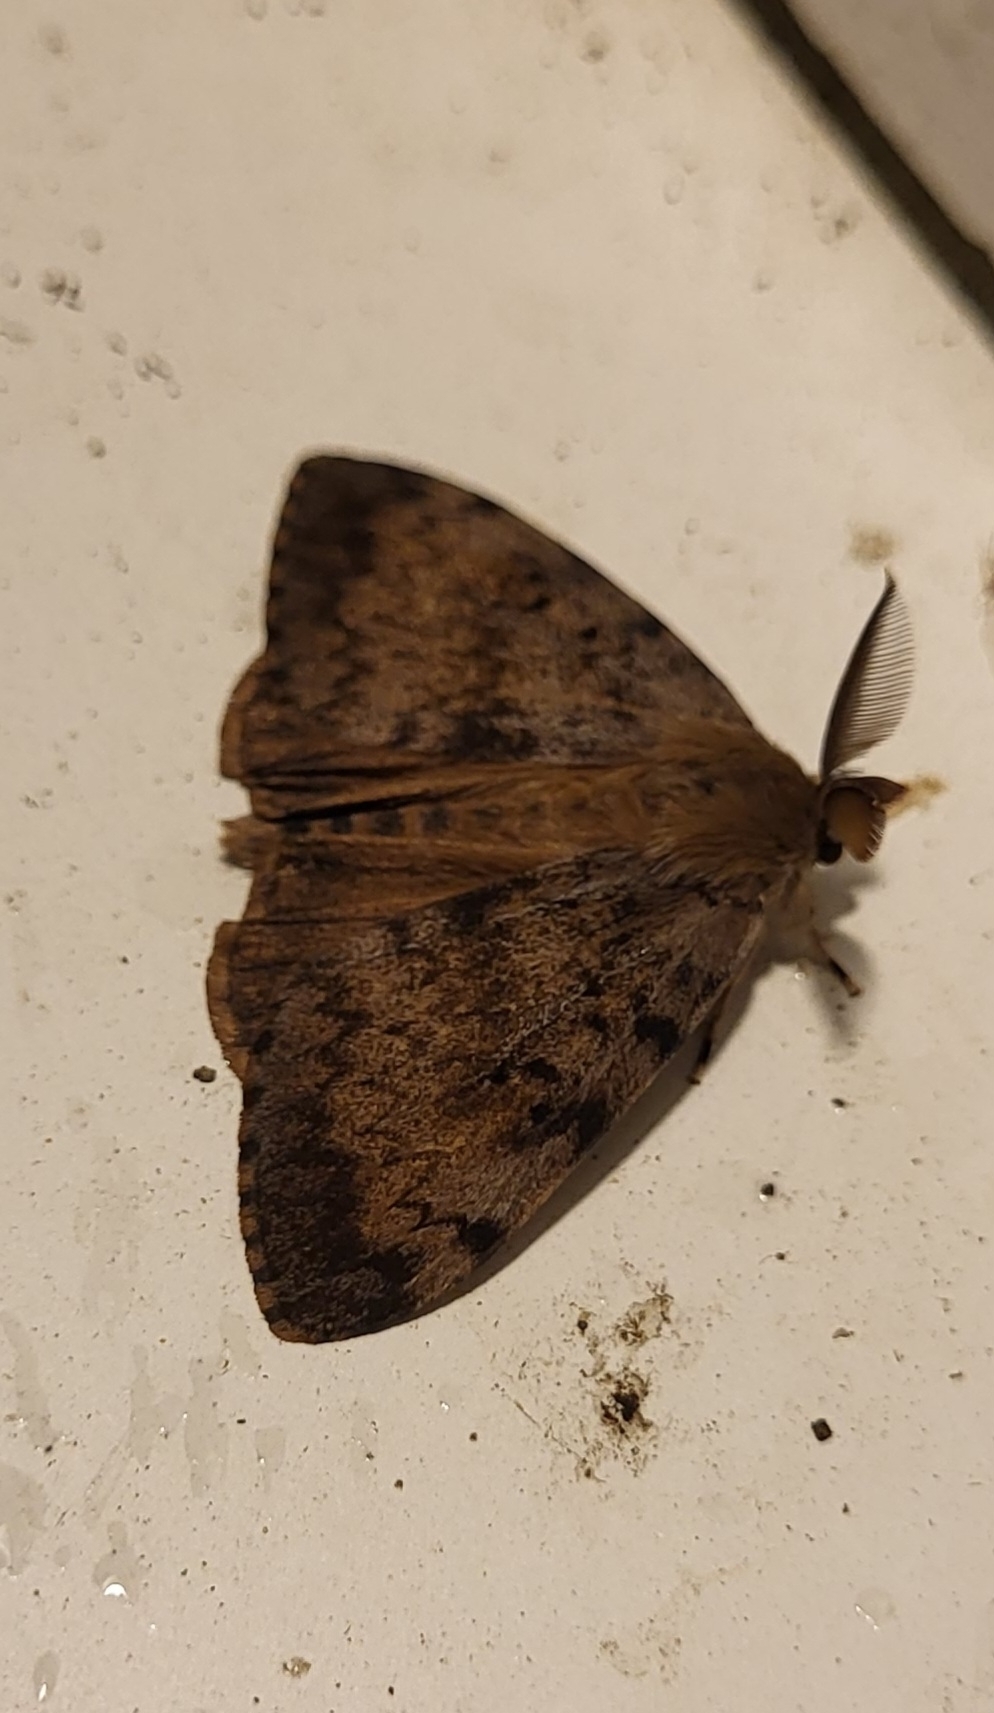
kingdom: Animalia
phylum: Arthropoda
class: Insecta
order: Lepidoptera
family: Erebidae
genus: Lymantria
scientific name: Lymantria dispar
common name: Gypsy moth
